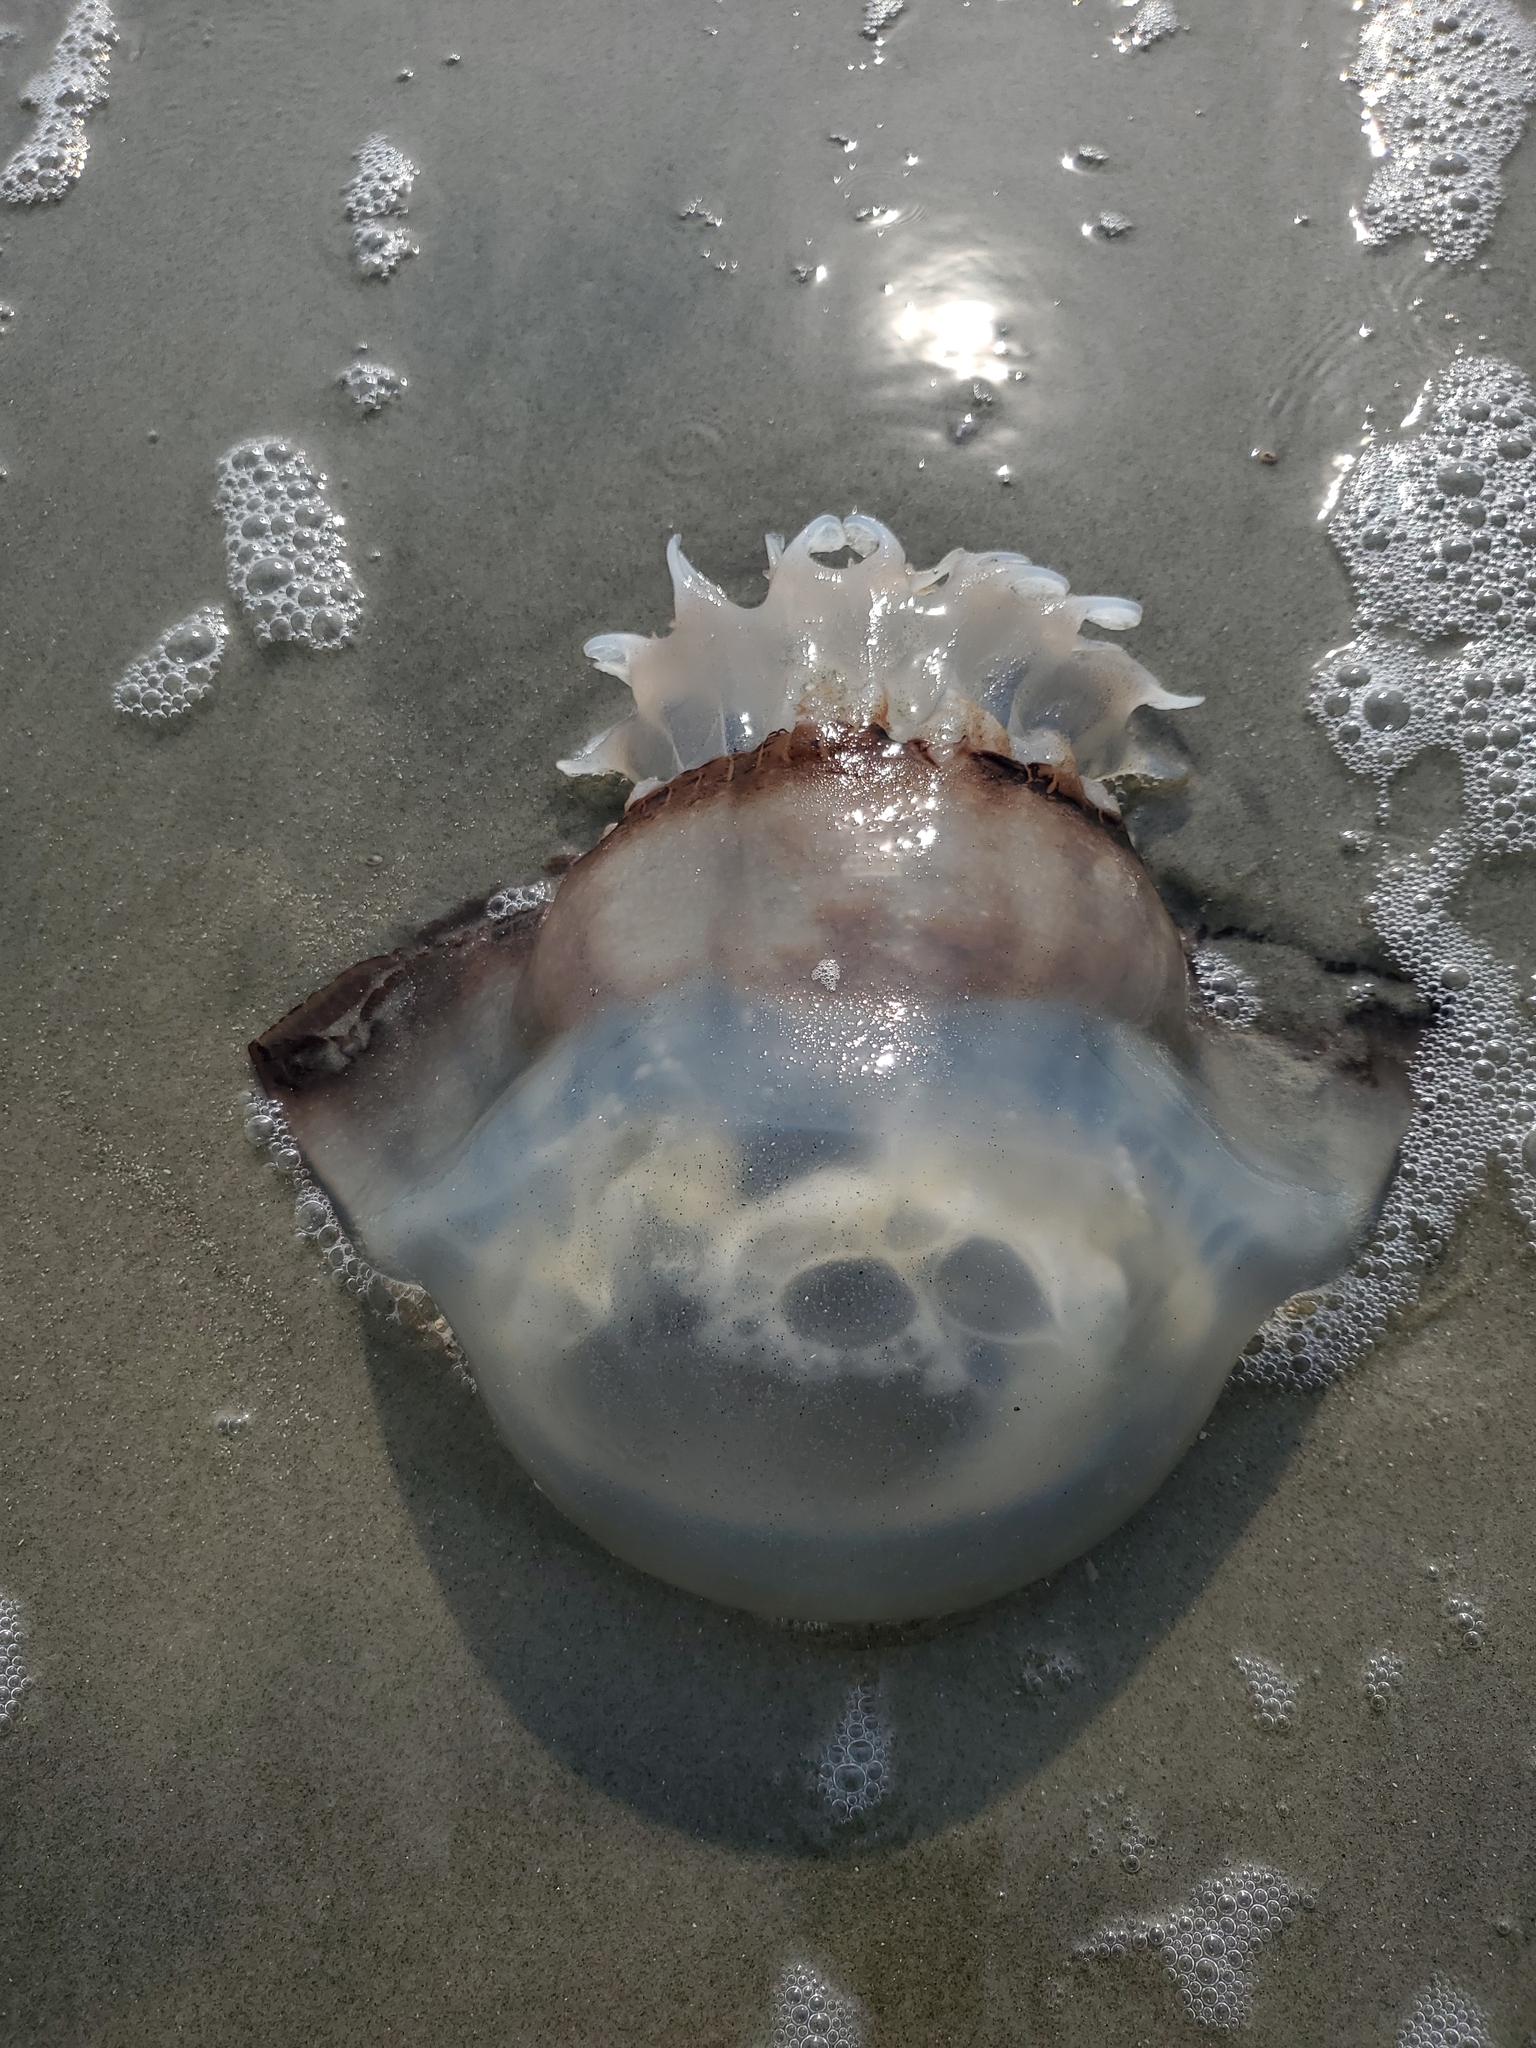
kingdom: Animalia
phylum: Cnidaria
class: Scyphozoa
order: Rhizostomeae
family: Stomolophidae
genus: Stomolophus
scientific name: Stomolophus meleagris
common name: Cabbagehead
